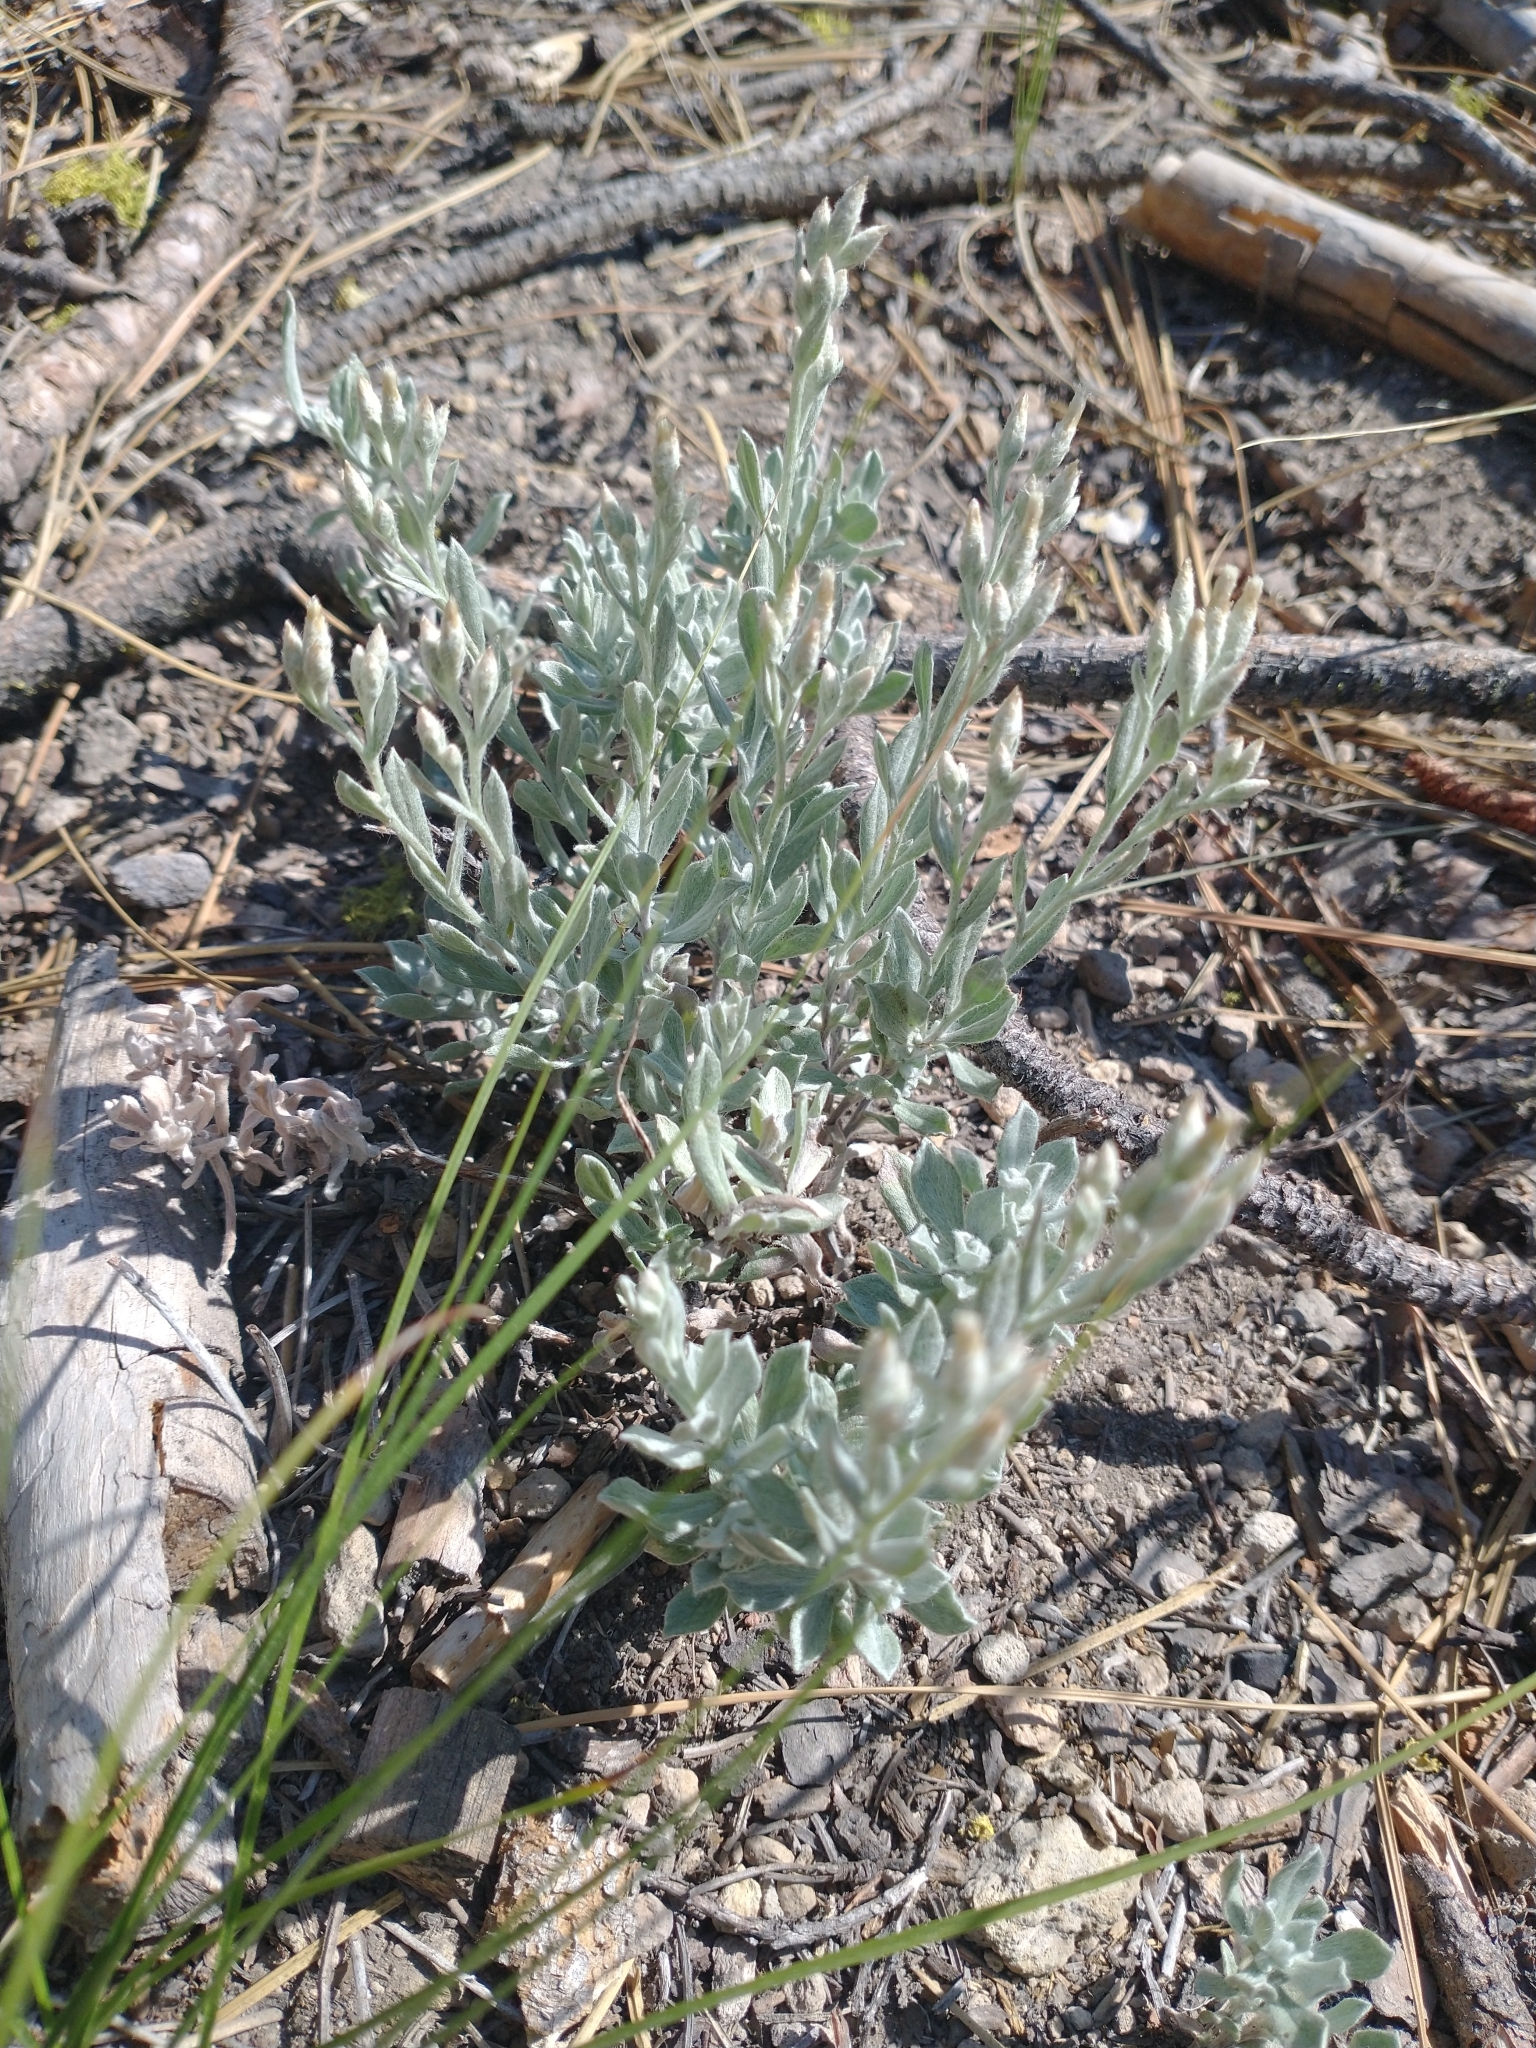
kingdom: Plantae
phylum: Tracheophyta
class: Magnoliopsida
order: Asterales
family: Asteraceae
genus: Antennaria
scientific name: Antennaria geyeri
